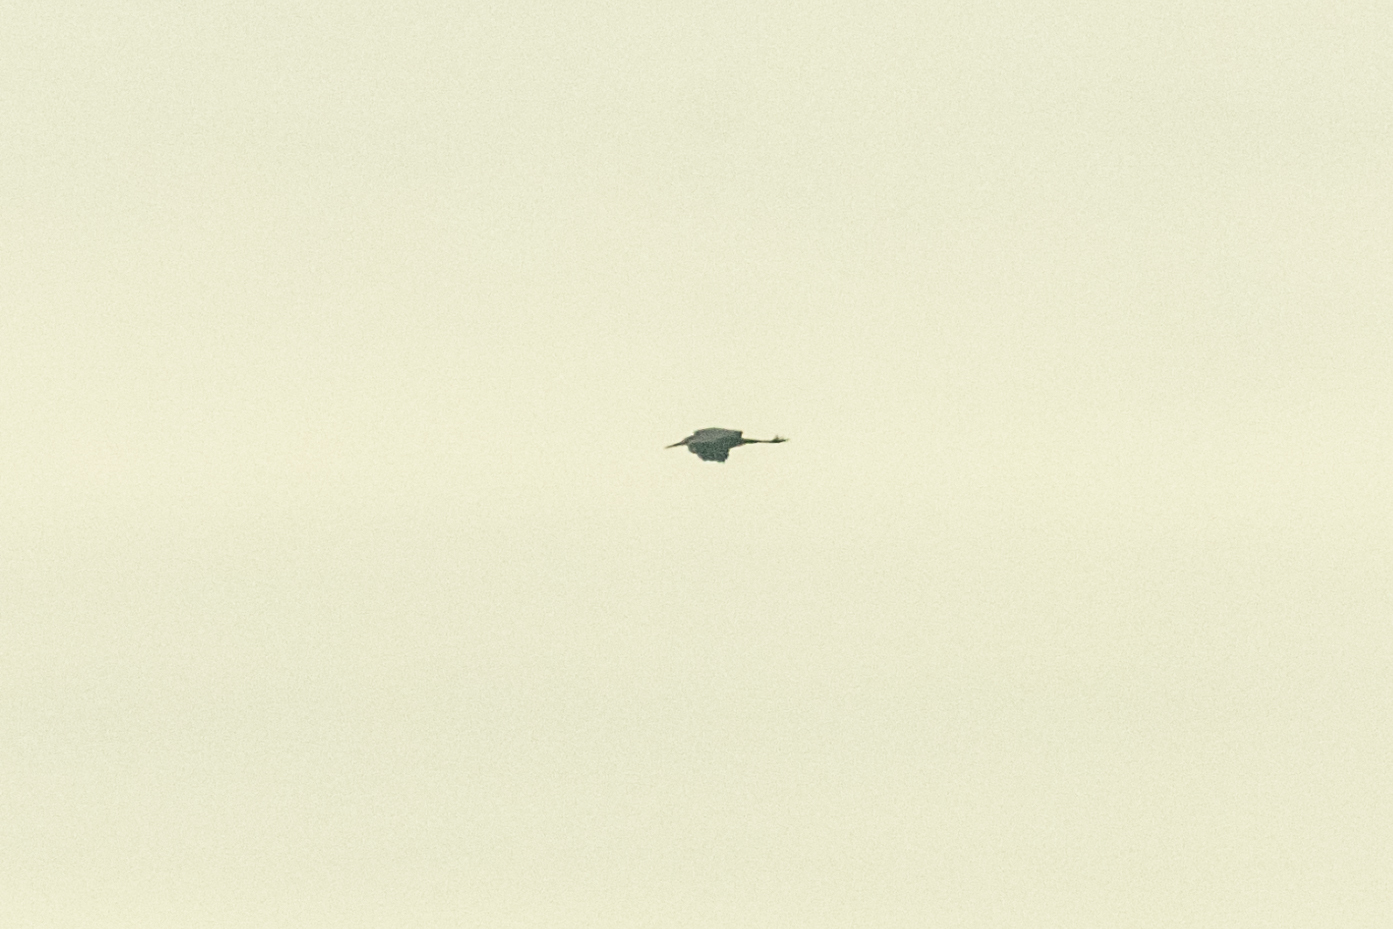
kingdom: Animalia
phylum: Chordata
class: Aves
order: Pelecaniformes
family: Ardeidae
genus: Ardea
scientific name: Ardea cinerea
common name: Grey heron
